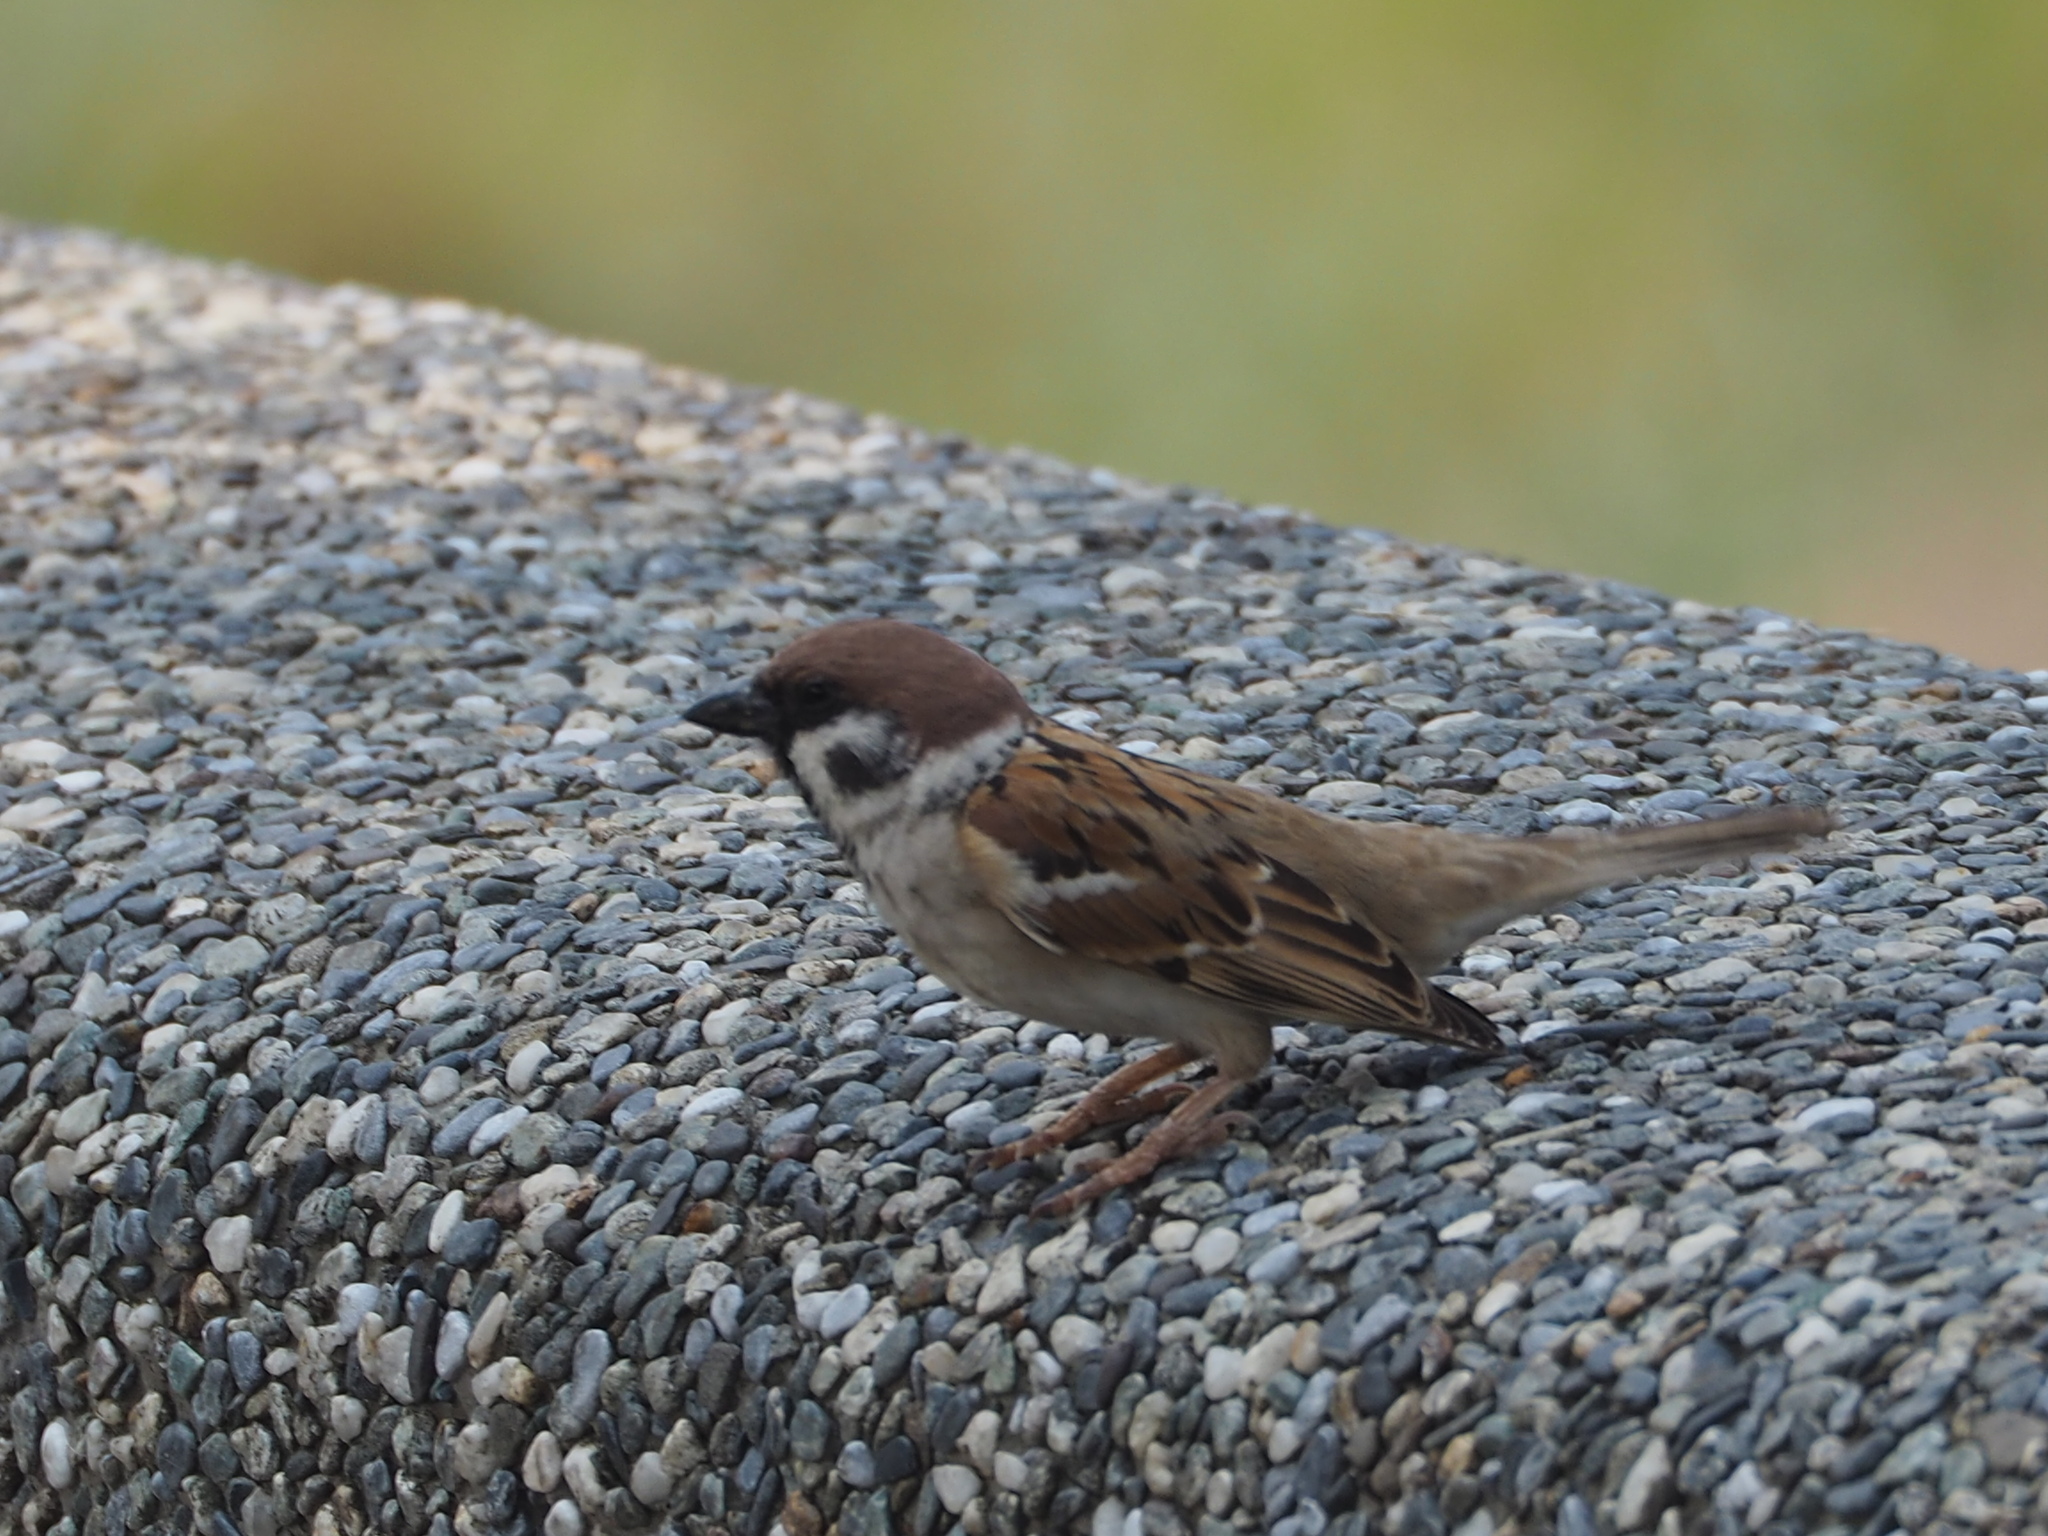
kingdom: Animalia
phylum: Chordata
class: Aves
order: Passeriformes
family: Passeridae
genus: Passer
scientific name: Passer montanus
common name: Eurasian tree sparrow
